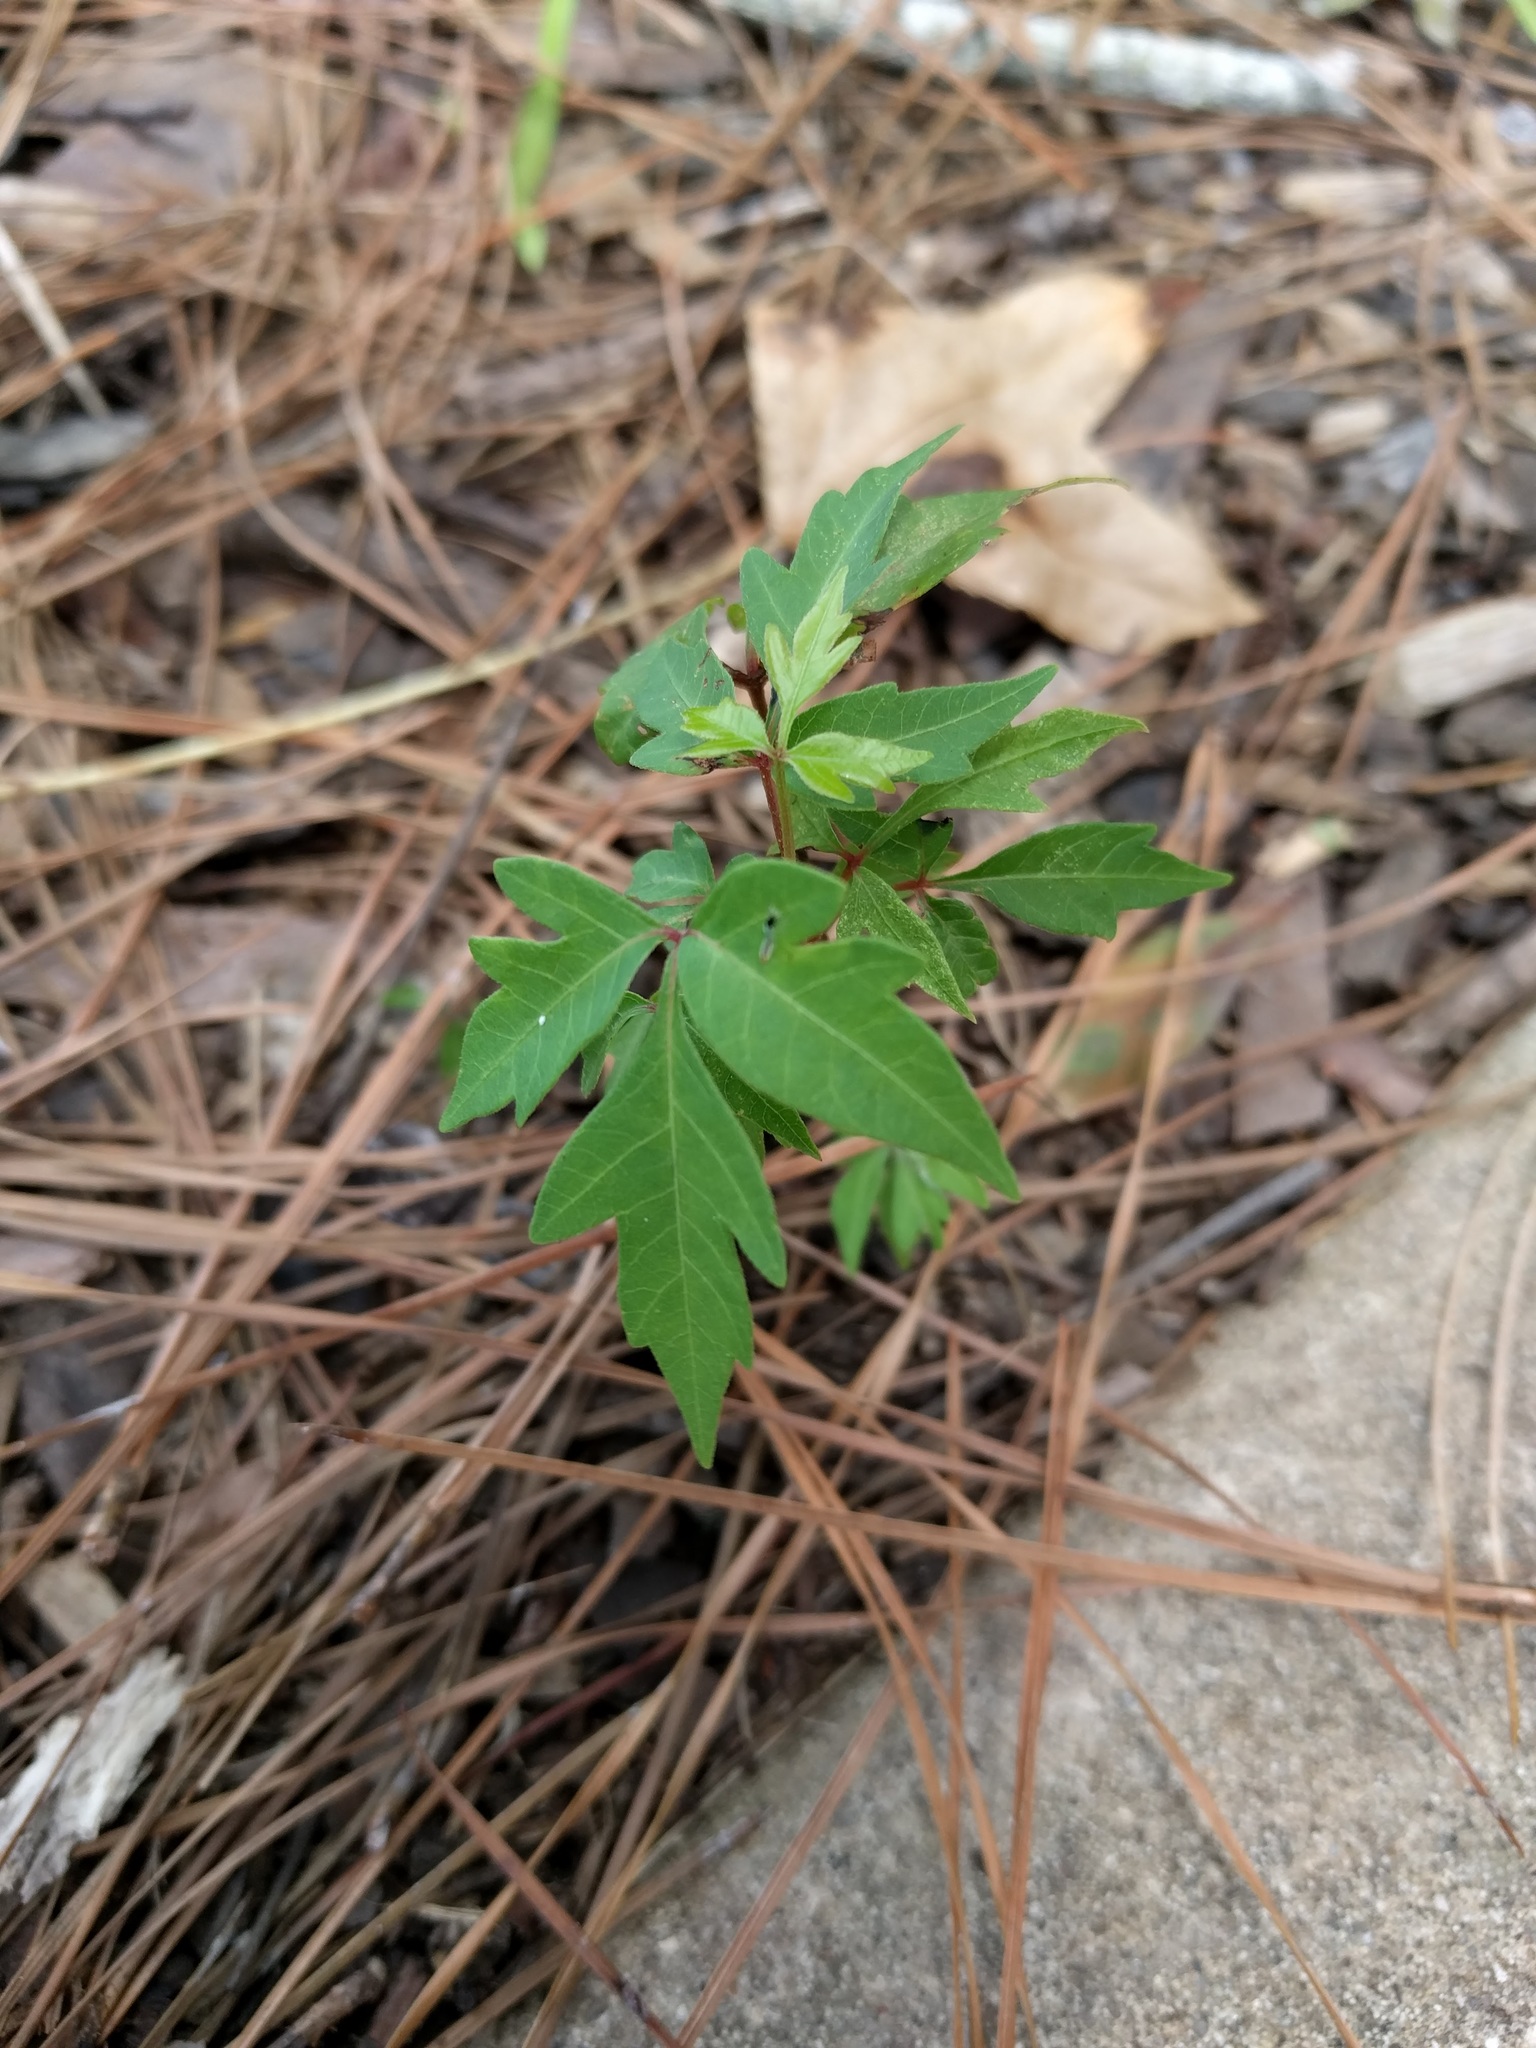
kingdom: Plantae
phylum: Tracheophyta
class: Magnoliopsida
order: Sapindales
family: Anacardiaceae
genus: Toxicodendron
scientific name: Toxicodendron radicans
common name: Poison ivy
